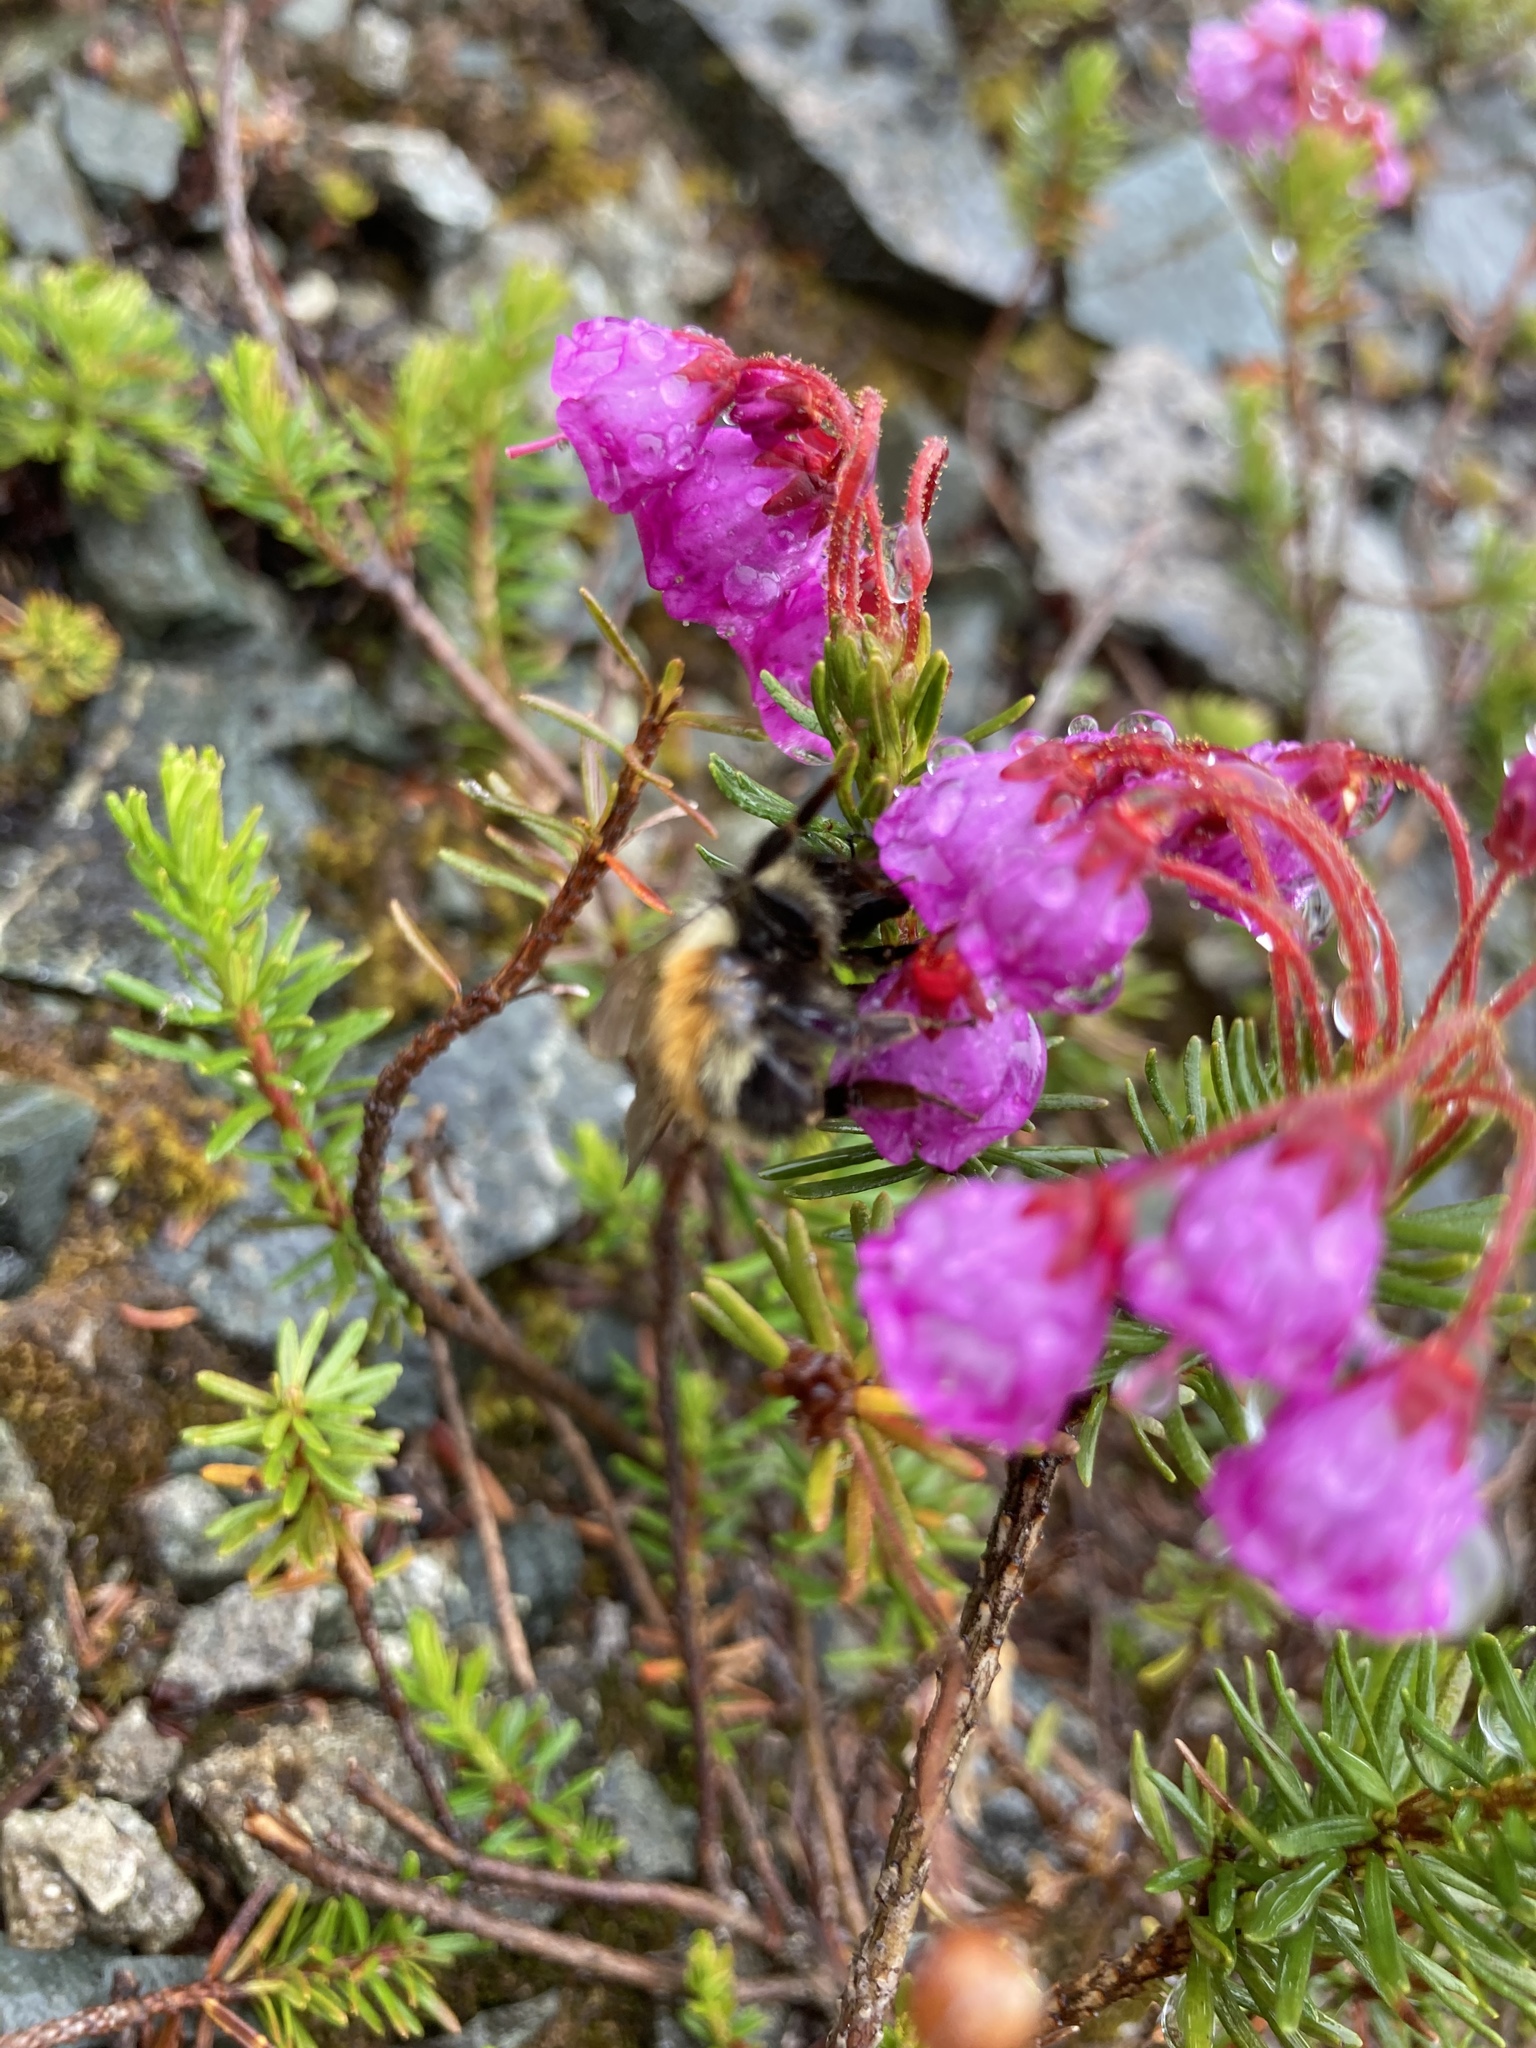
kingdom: Animalia
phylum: Arthropoda
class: Insecta
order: Hymenoptera
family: Apidae
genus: Bombus
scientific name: Bombus melanopygus
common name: Black tail bumble bee
